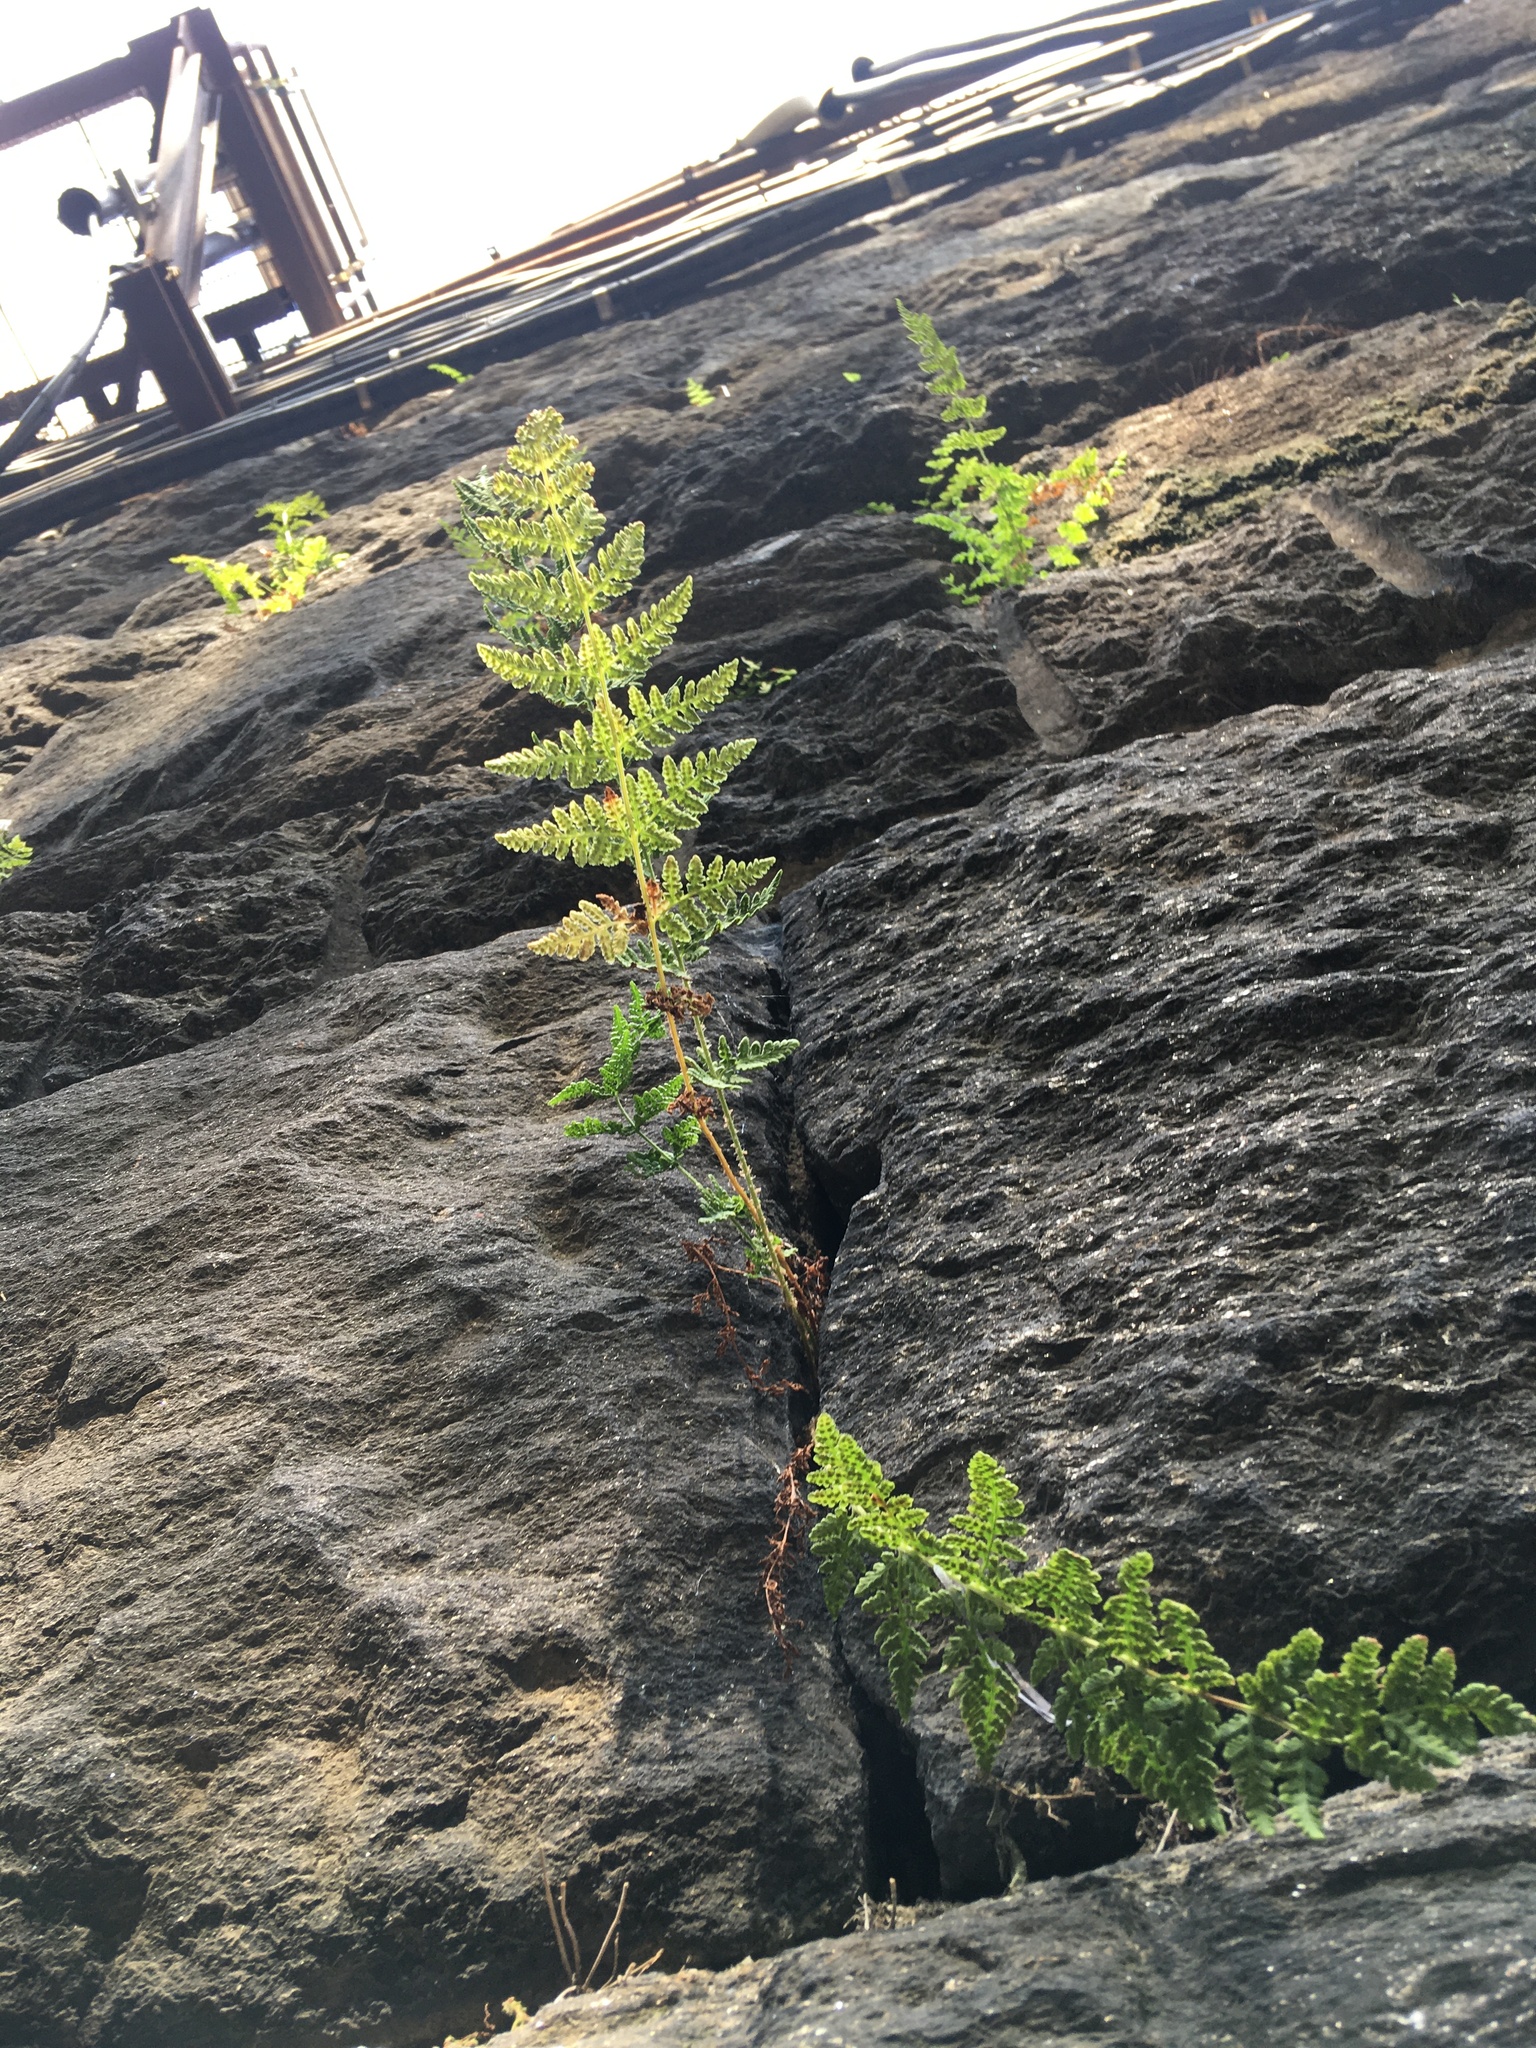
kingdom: Plantae
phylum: Tracheophyta
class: Polypodiopsida
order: Polypodiales
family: Woodsiaceae
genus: Physematium
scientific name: Physematium obtusum
